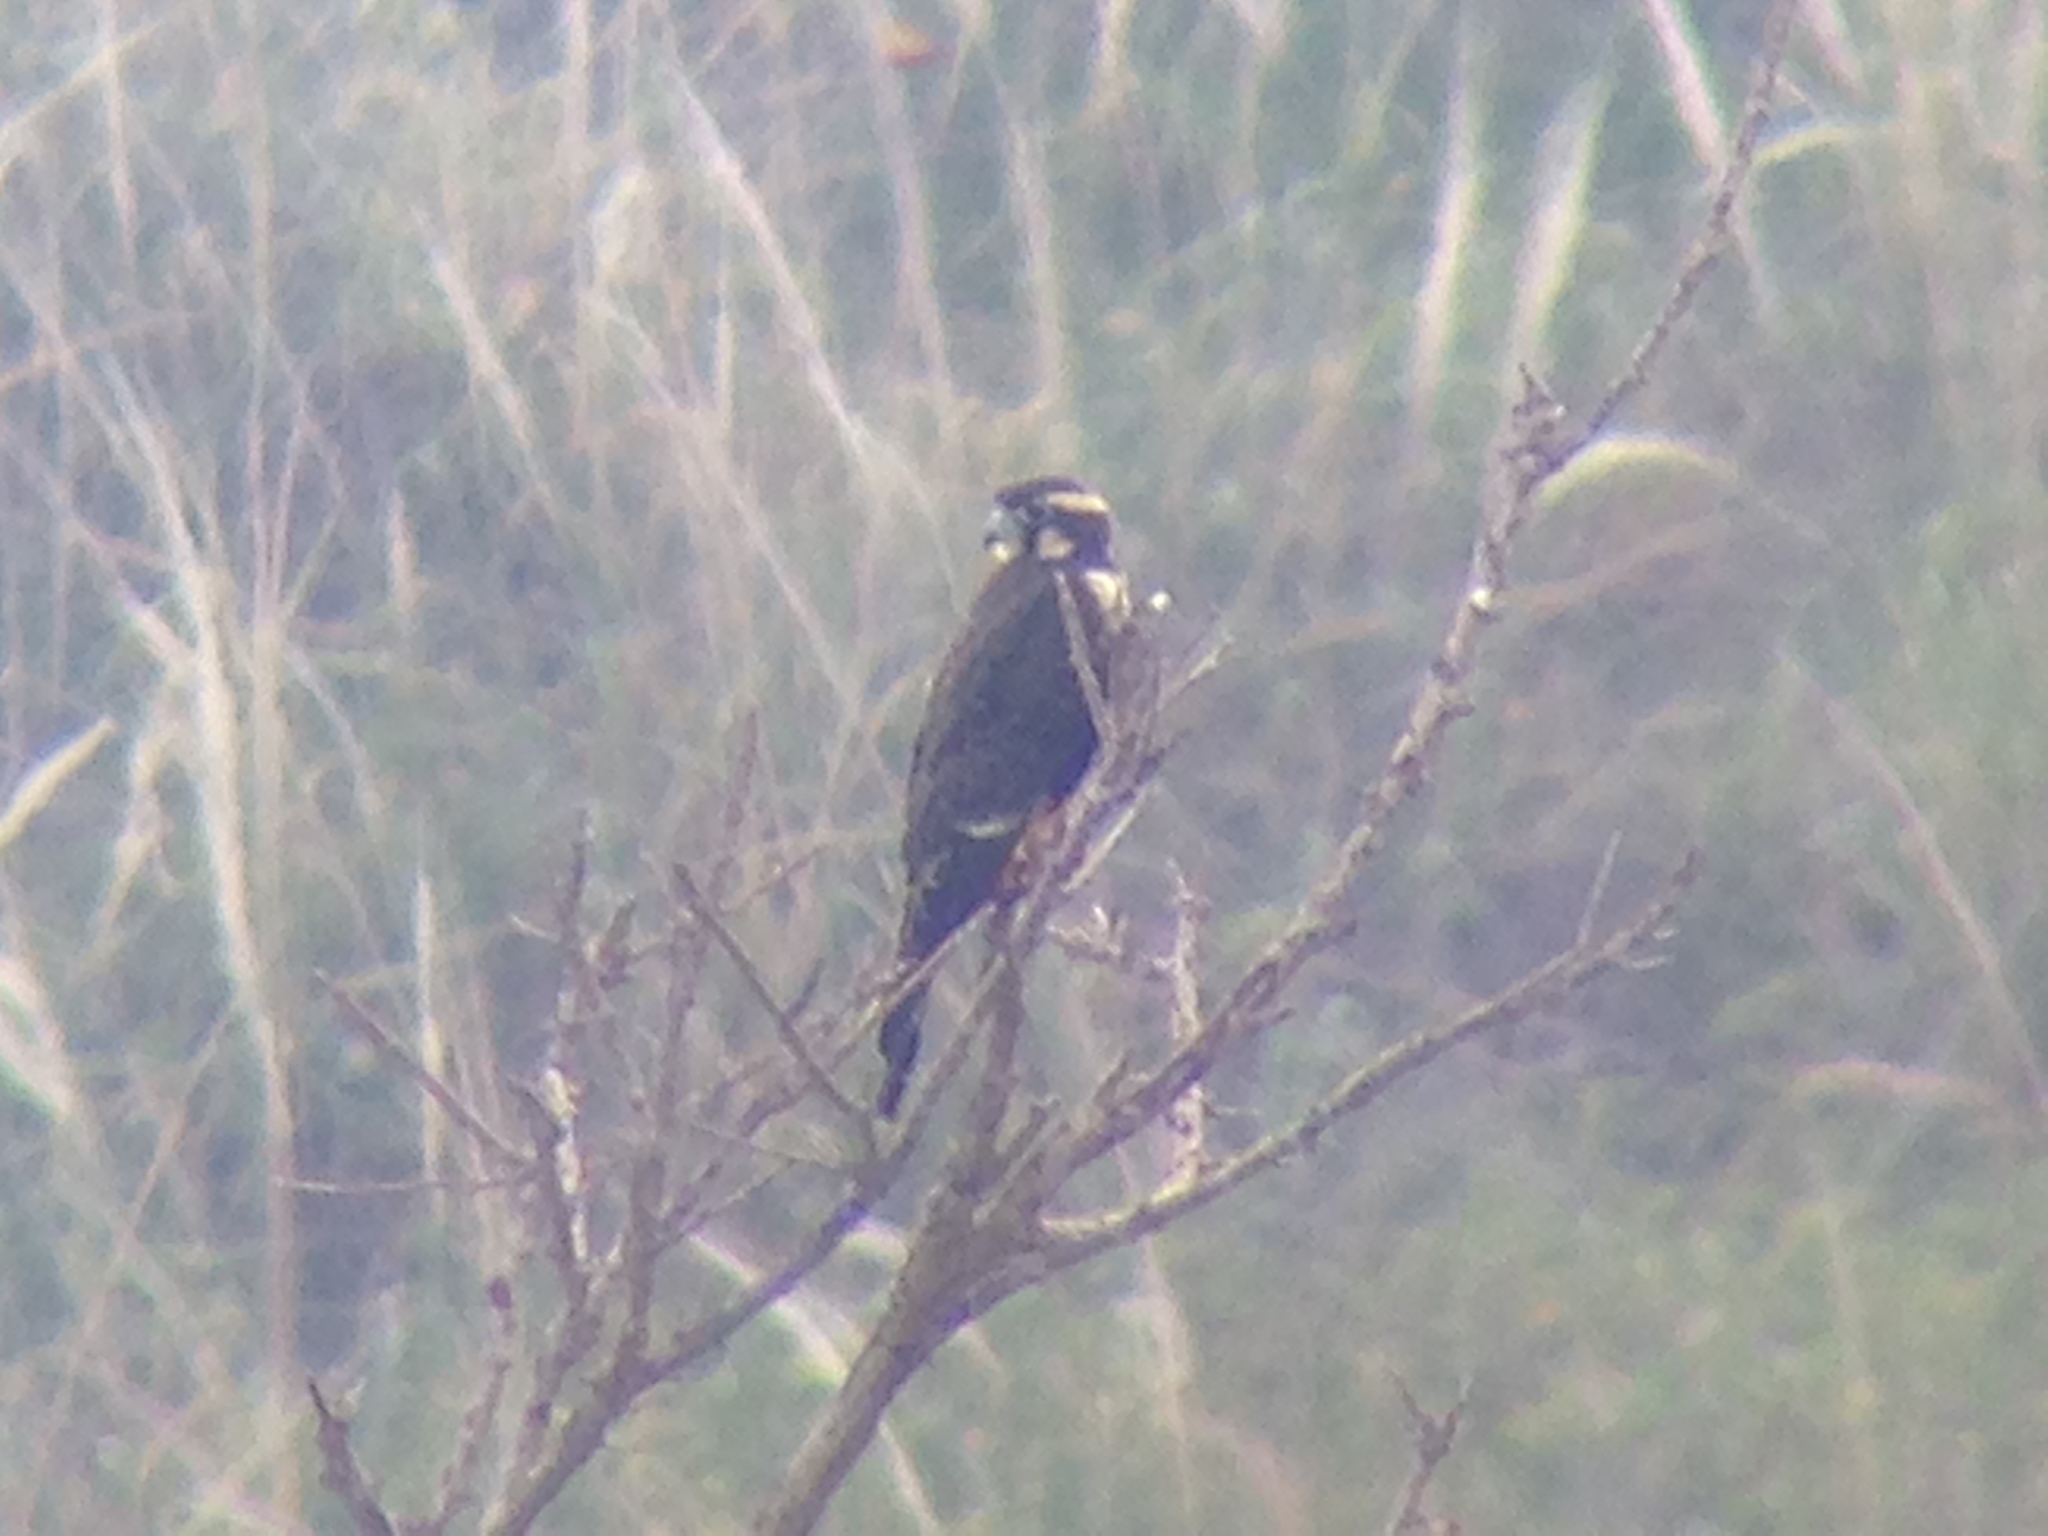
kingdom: Animalia
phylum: Chordata
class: Aves
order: Falconiformes
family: Falconidae
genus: Falco
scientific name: Falco femoralis
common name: Aplomado falcon
